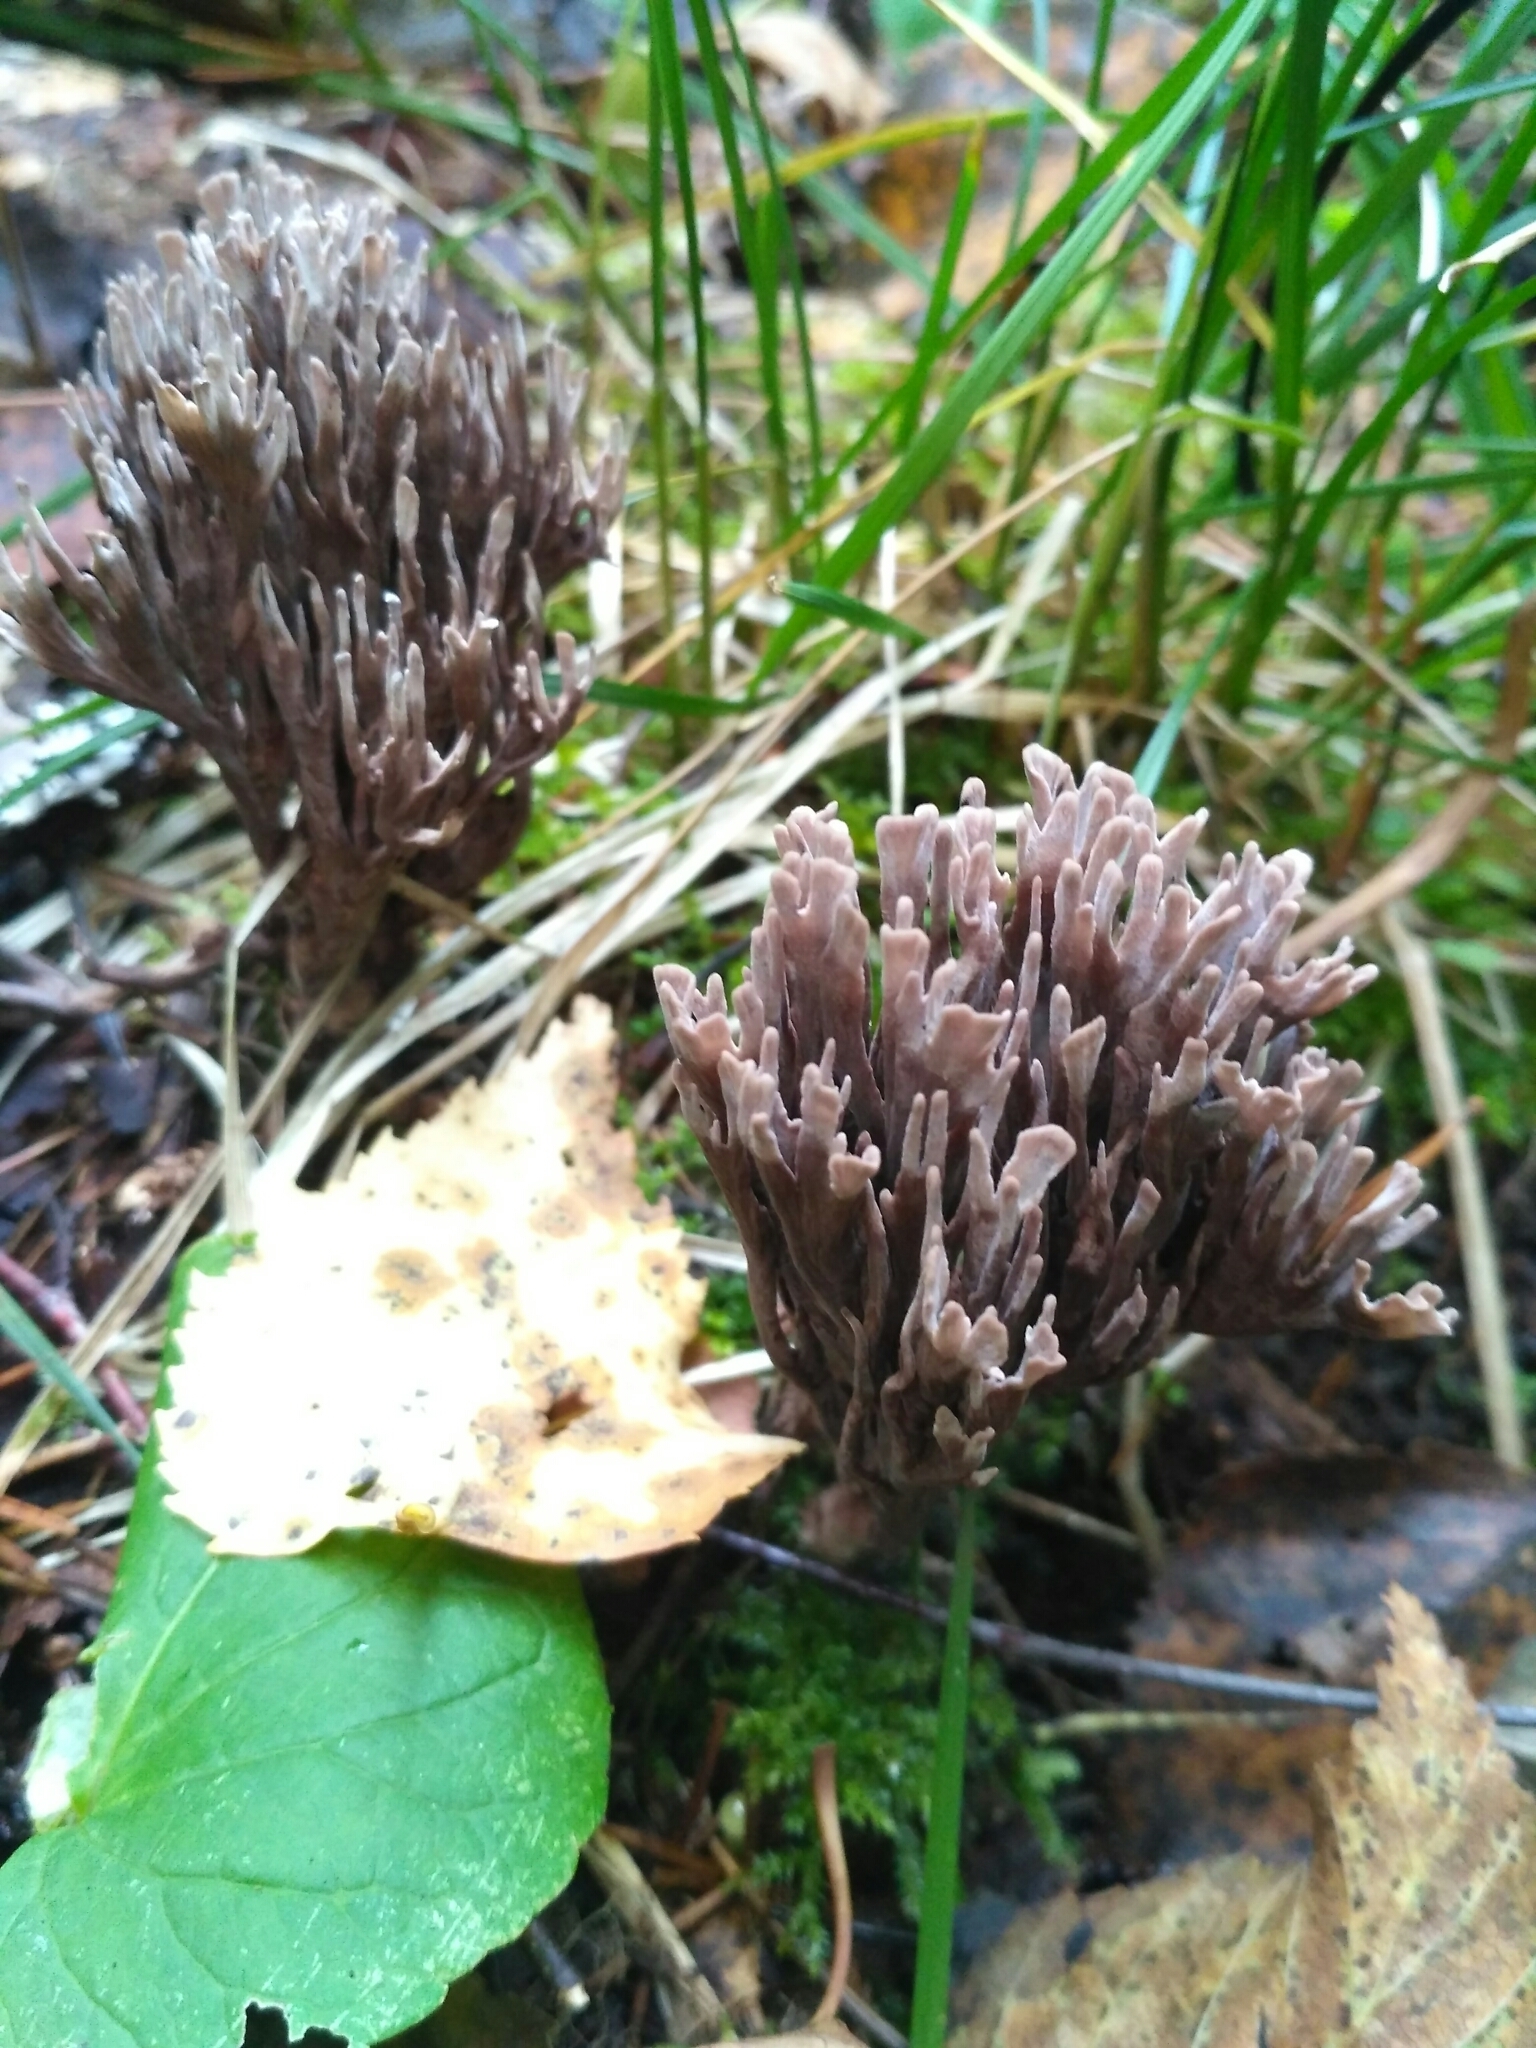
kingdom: Fungi
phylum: Basidiomycota
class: Agaricomycetes
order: Thelephorales
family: Thelephoraceae
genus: Thelephora
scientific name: Thelephora palmata
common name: Stinking earthfan
